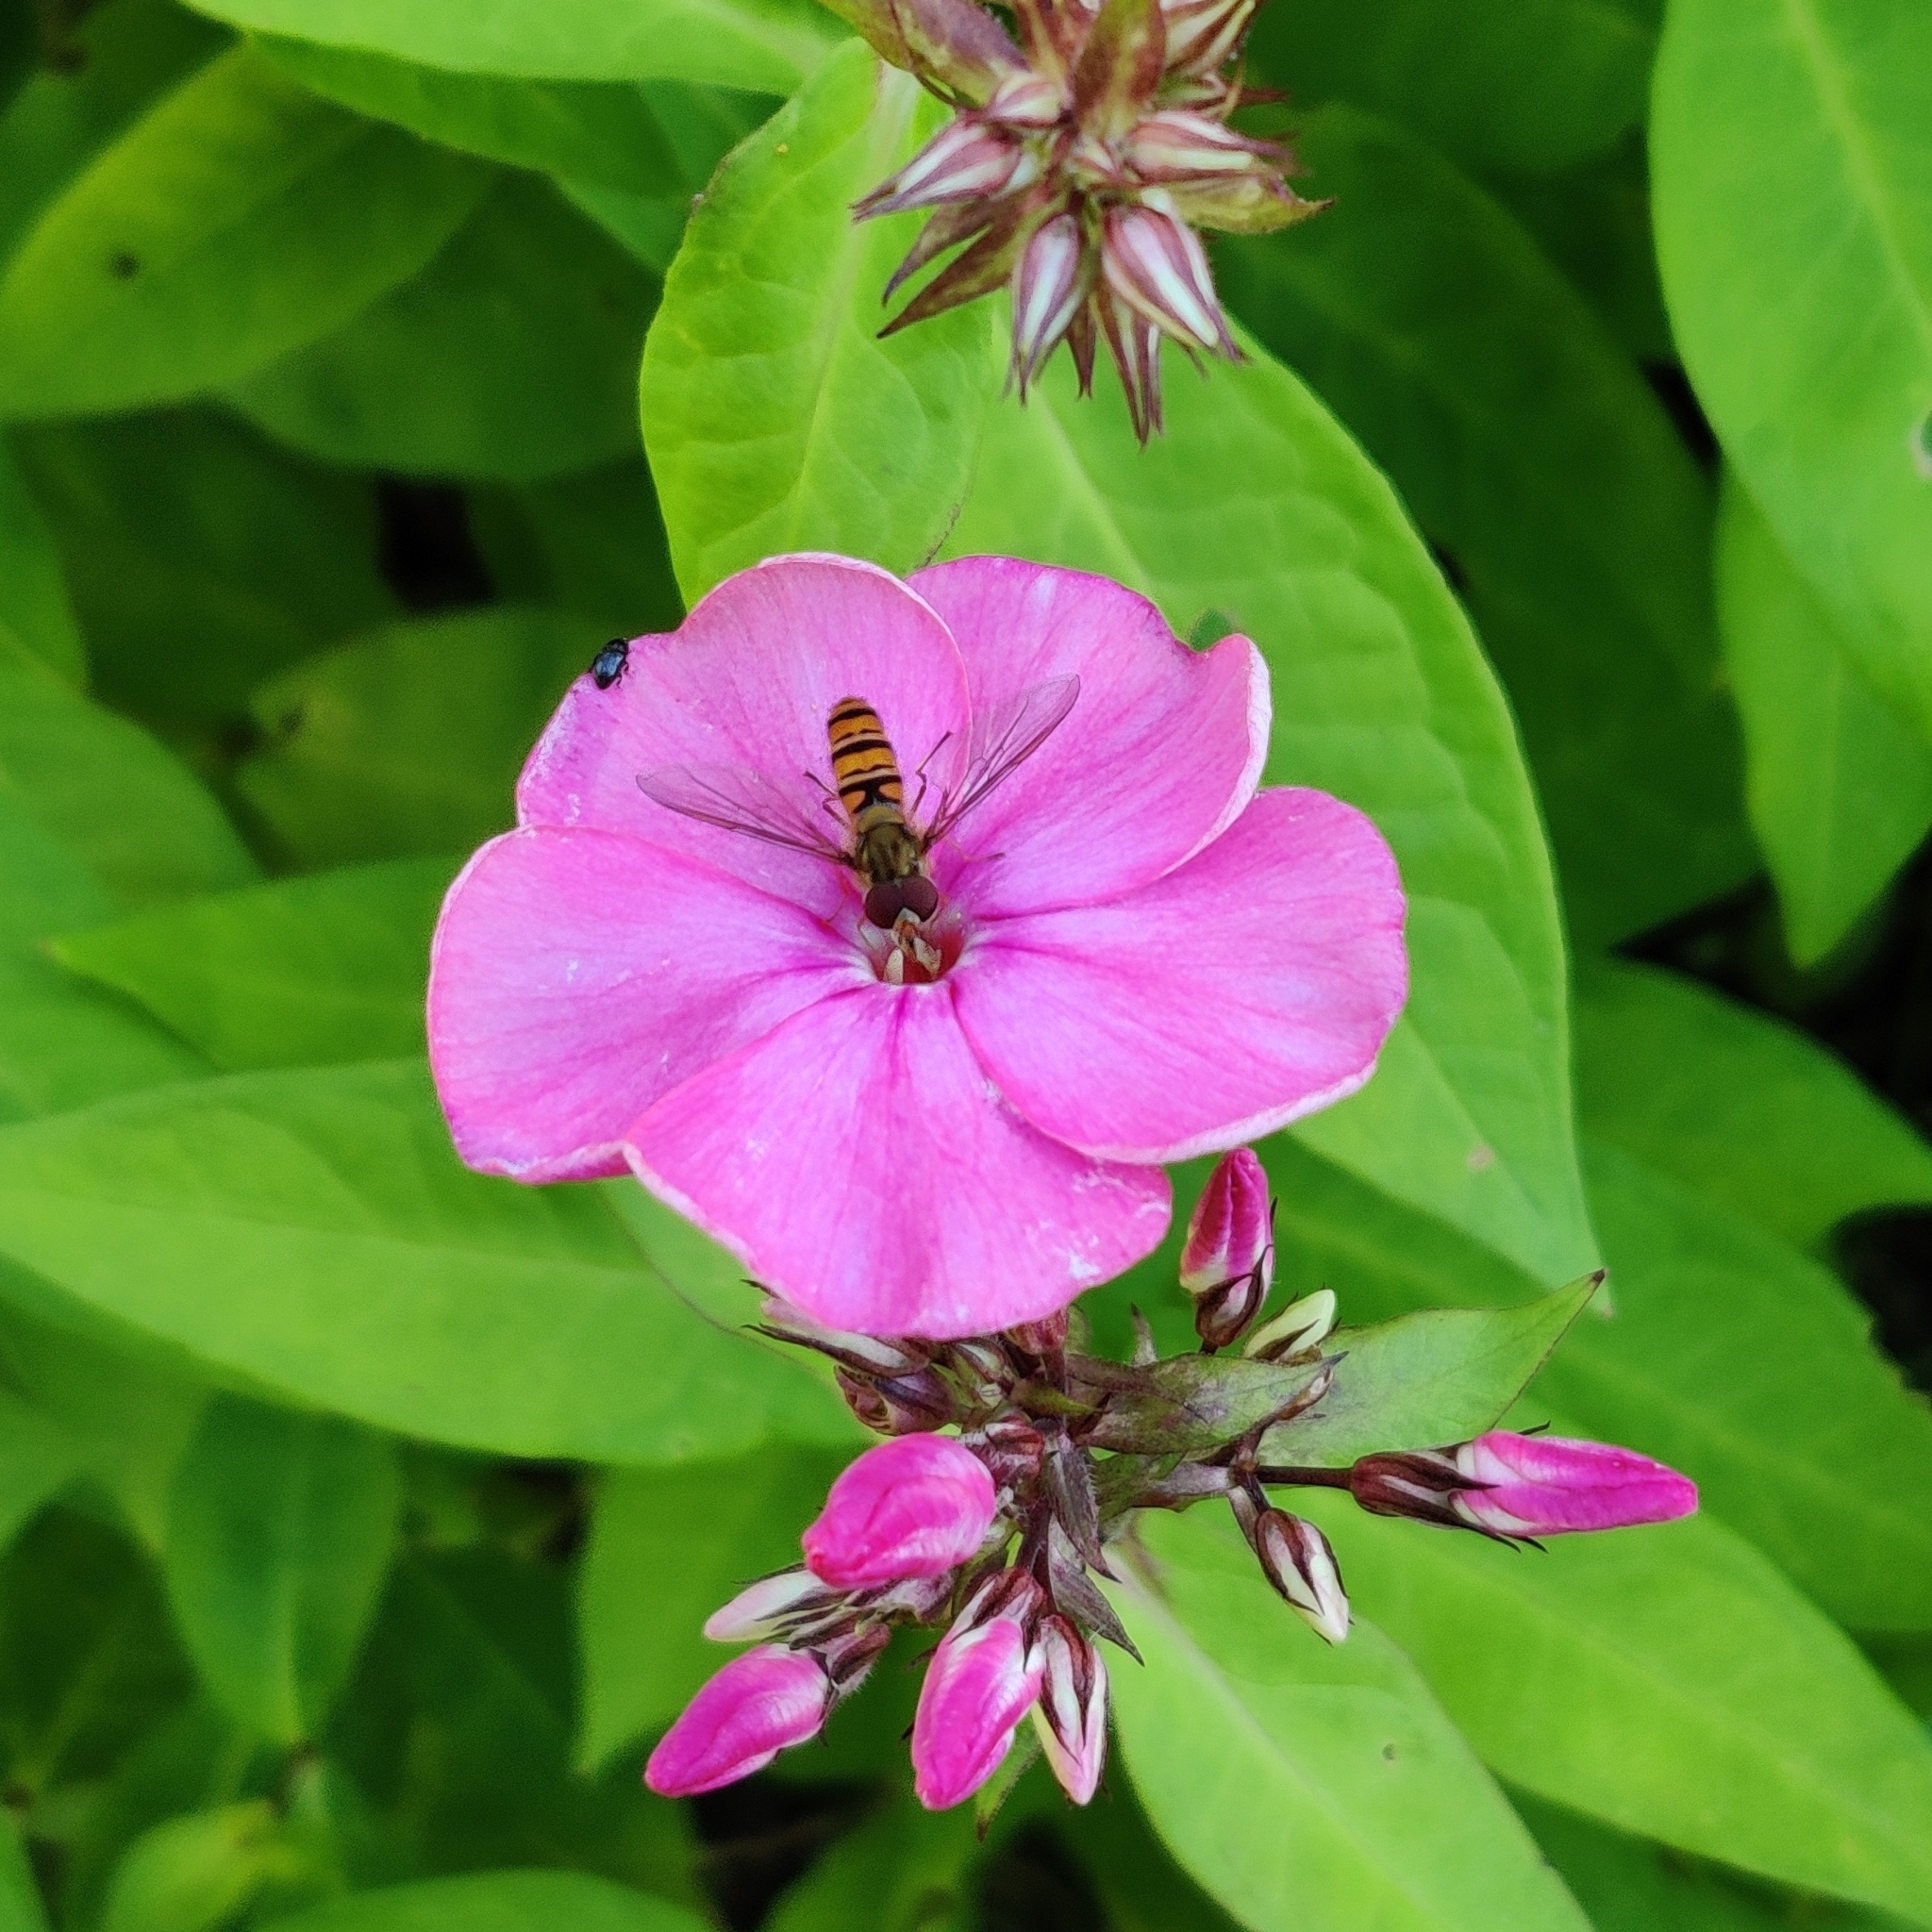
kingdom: Animalia
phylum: Arthropoda
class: Insecta
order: Diptera
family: Syrphidae
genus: Episyrphus
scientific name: Episyrphus balteatus
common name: Marmalade hoverfly
